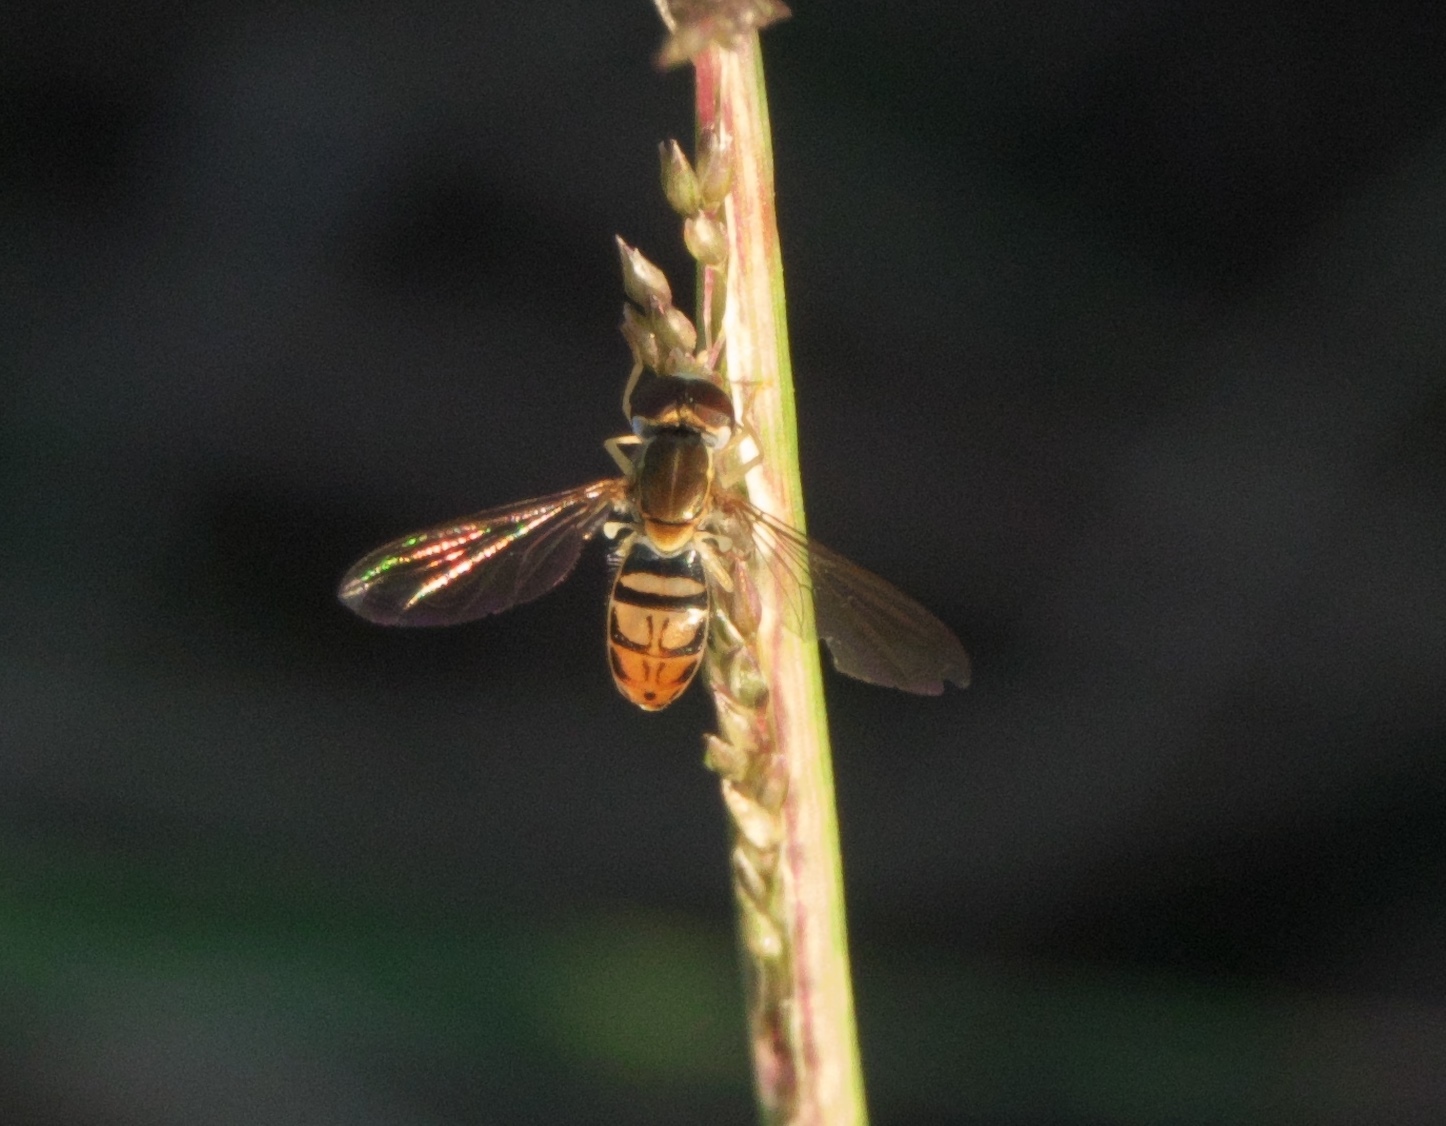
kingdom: Animalia
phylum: Arthropoda
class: Insecta
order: Diptera
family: Syrphidae
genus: Toxomerus
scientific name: Toxomerus marginatus
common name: Syrphid fly
